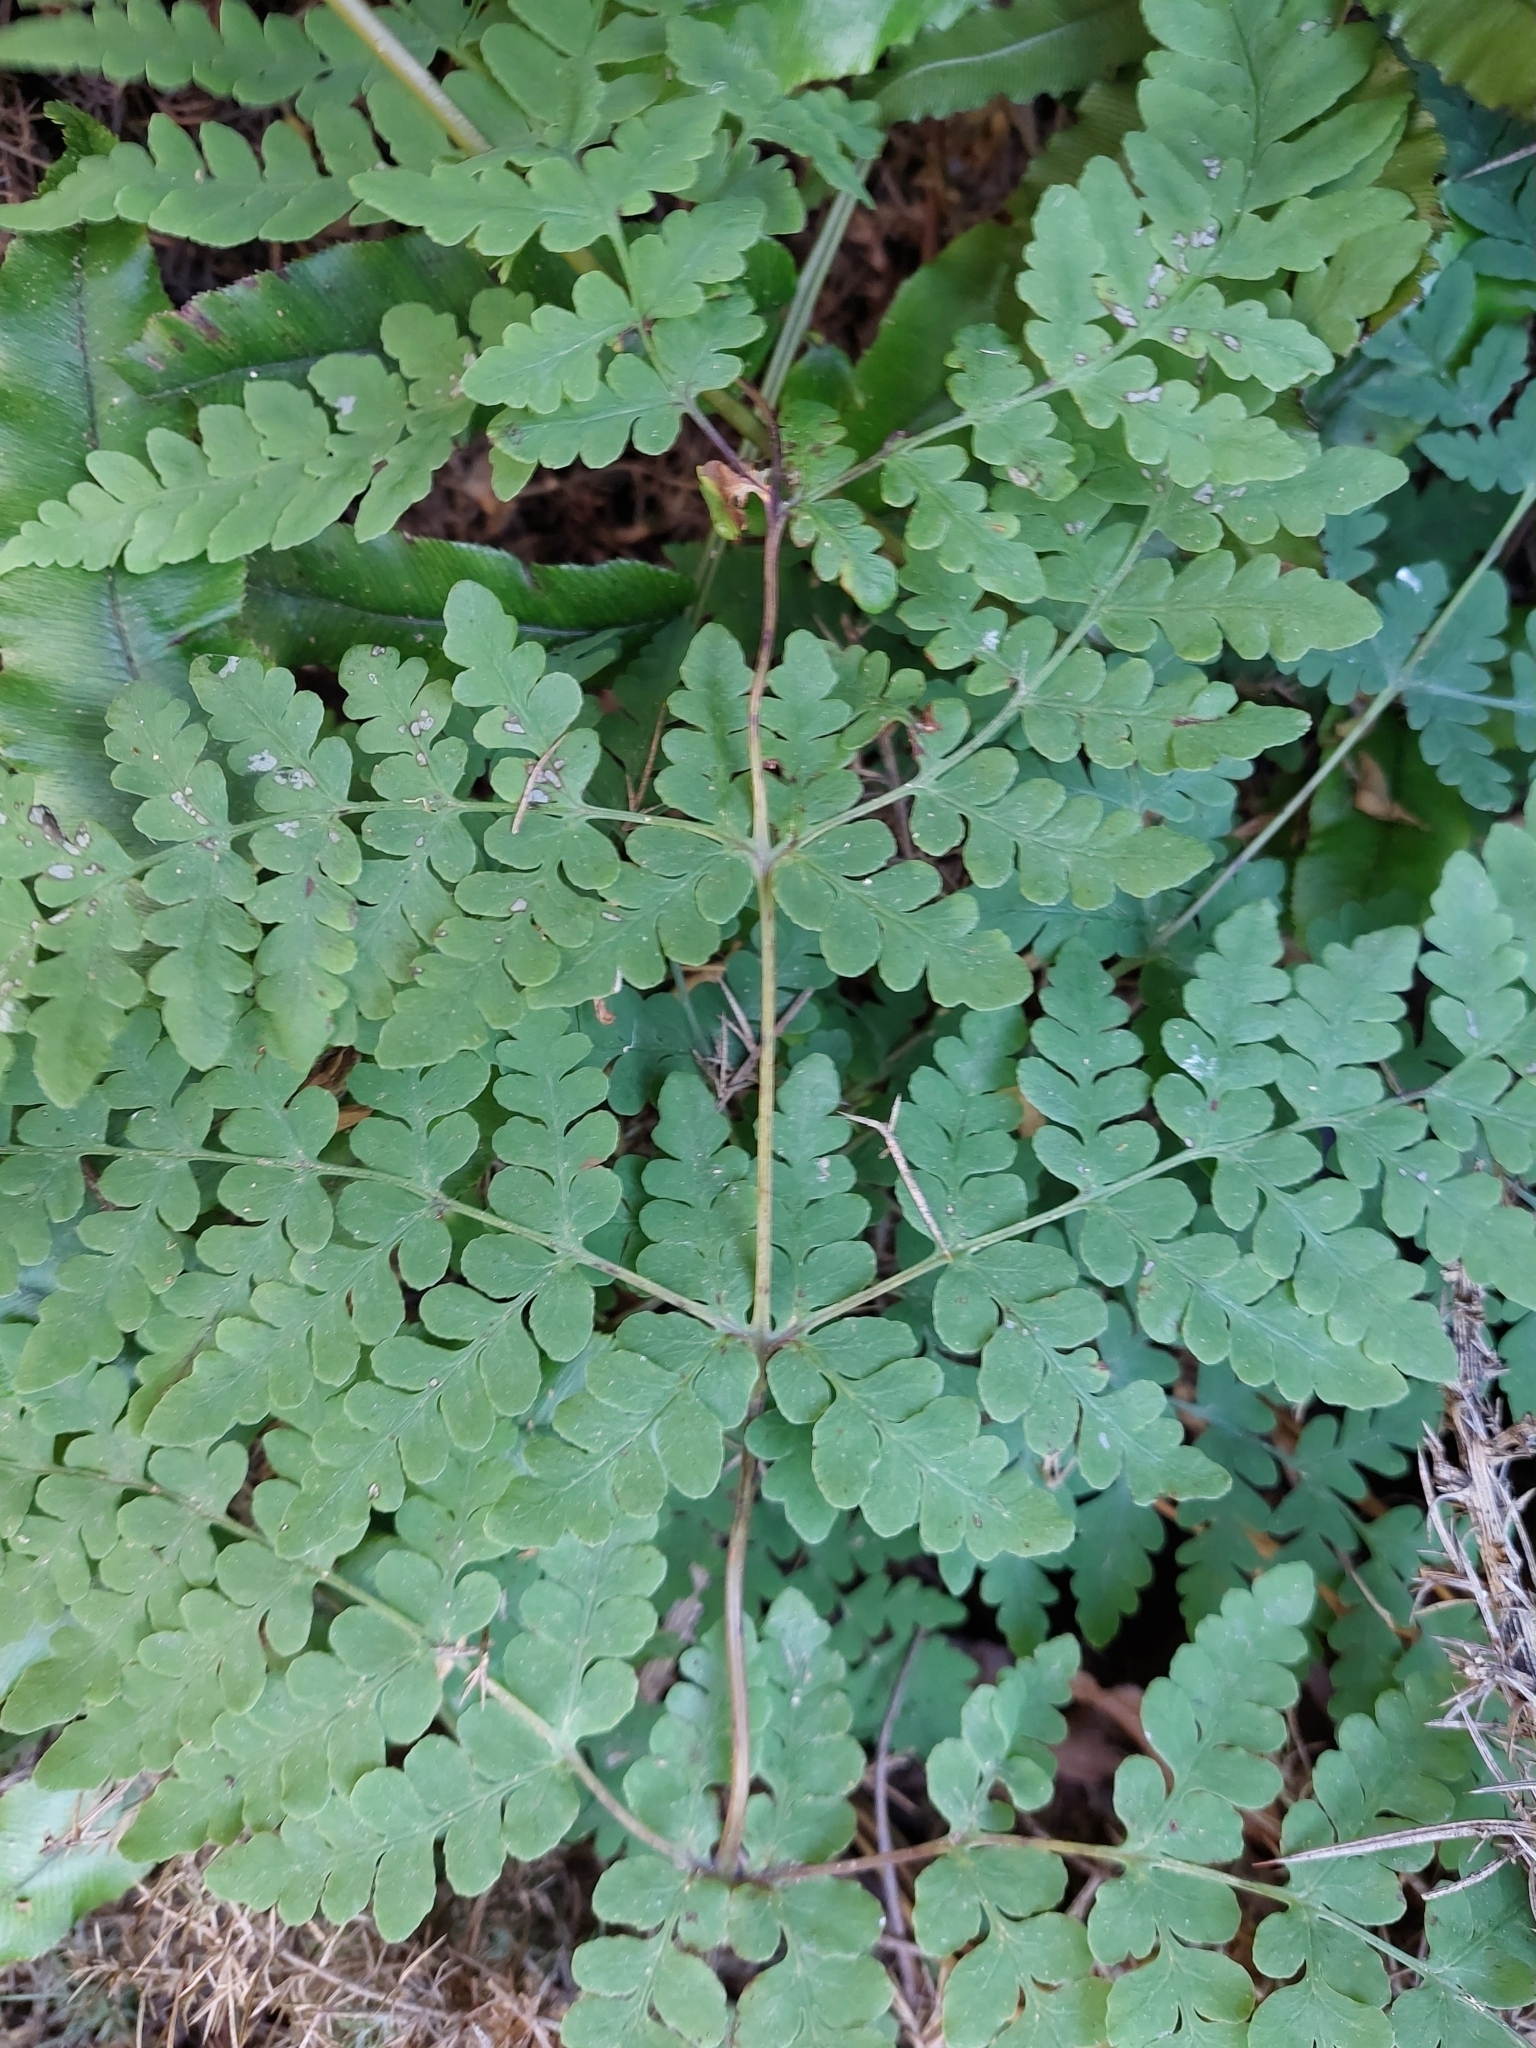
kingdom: Plantae
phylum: Tracheophyta
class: Polypodiopsida
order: Polypodiales
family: Dennstaedtiaceae
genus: Histiopteris
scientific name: Histiopteris incisa
